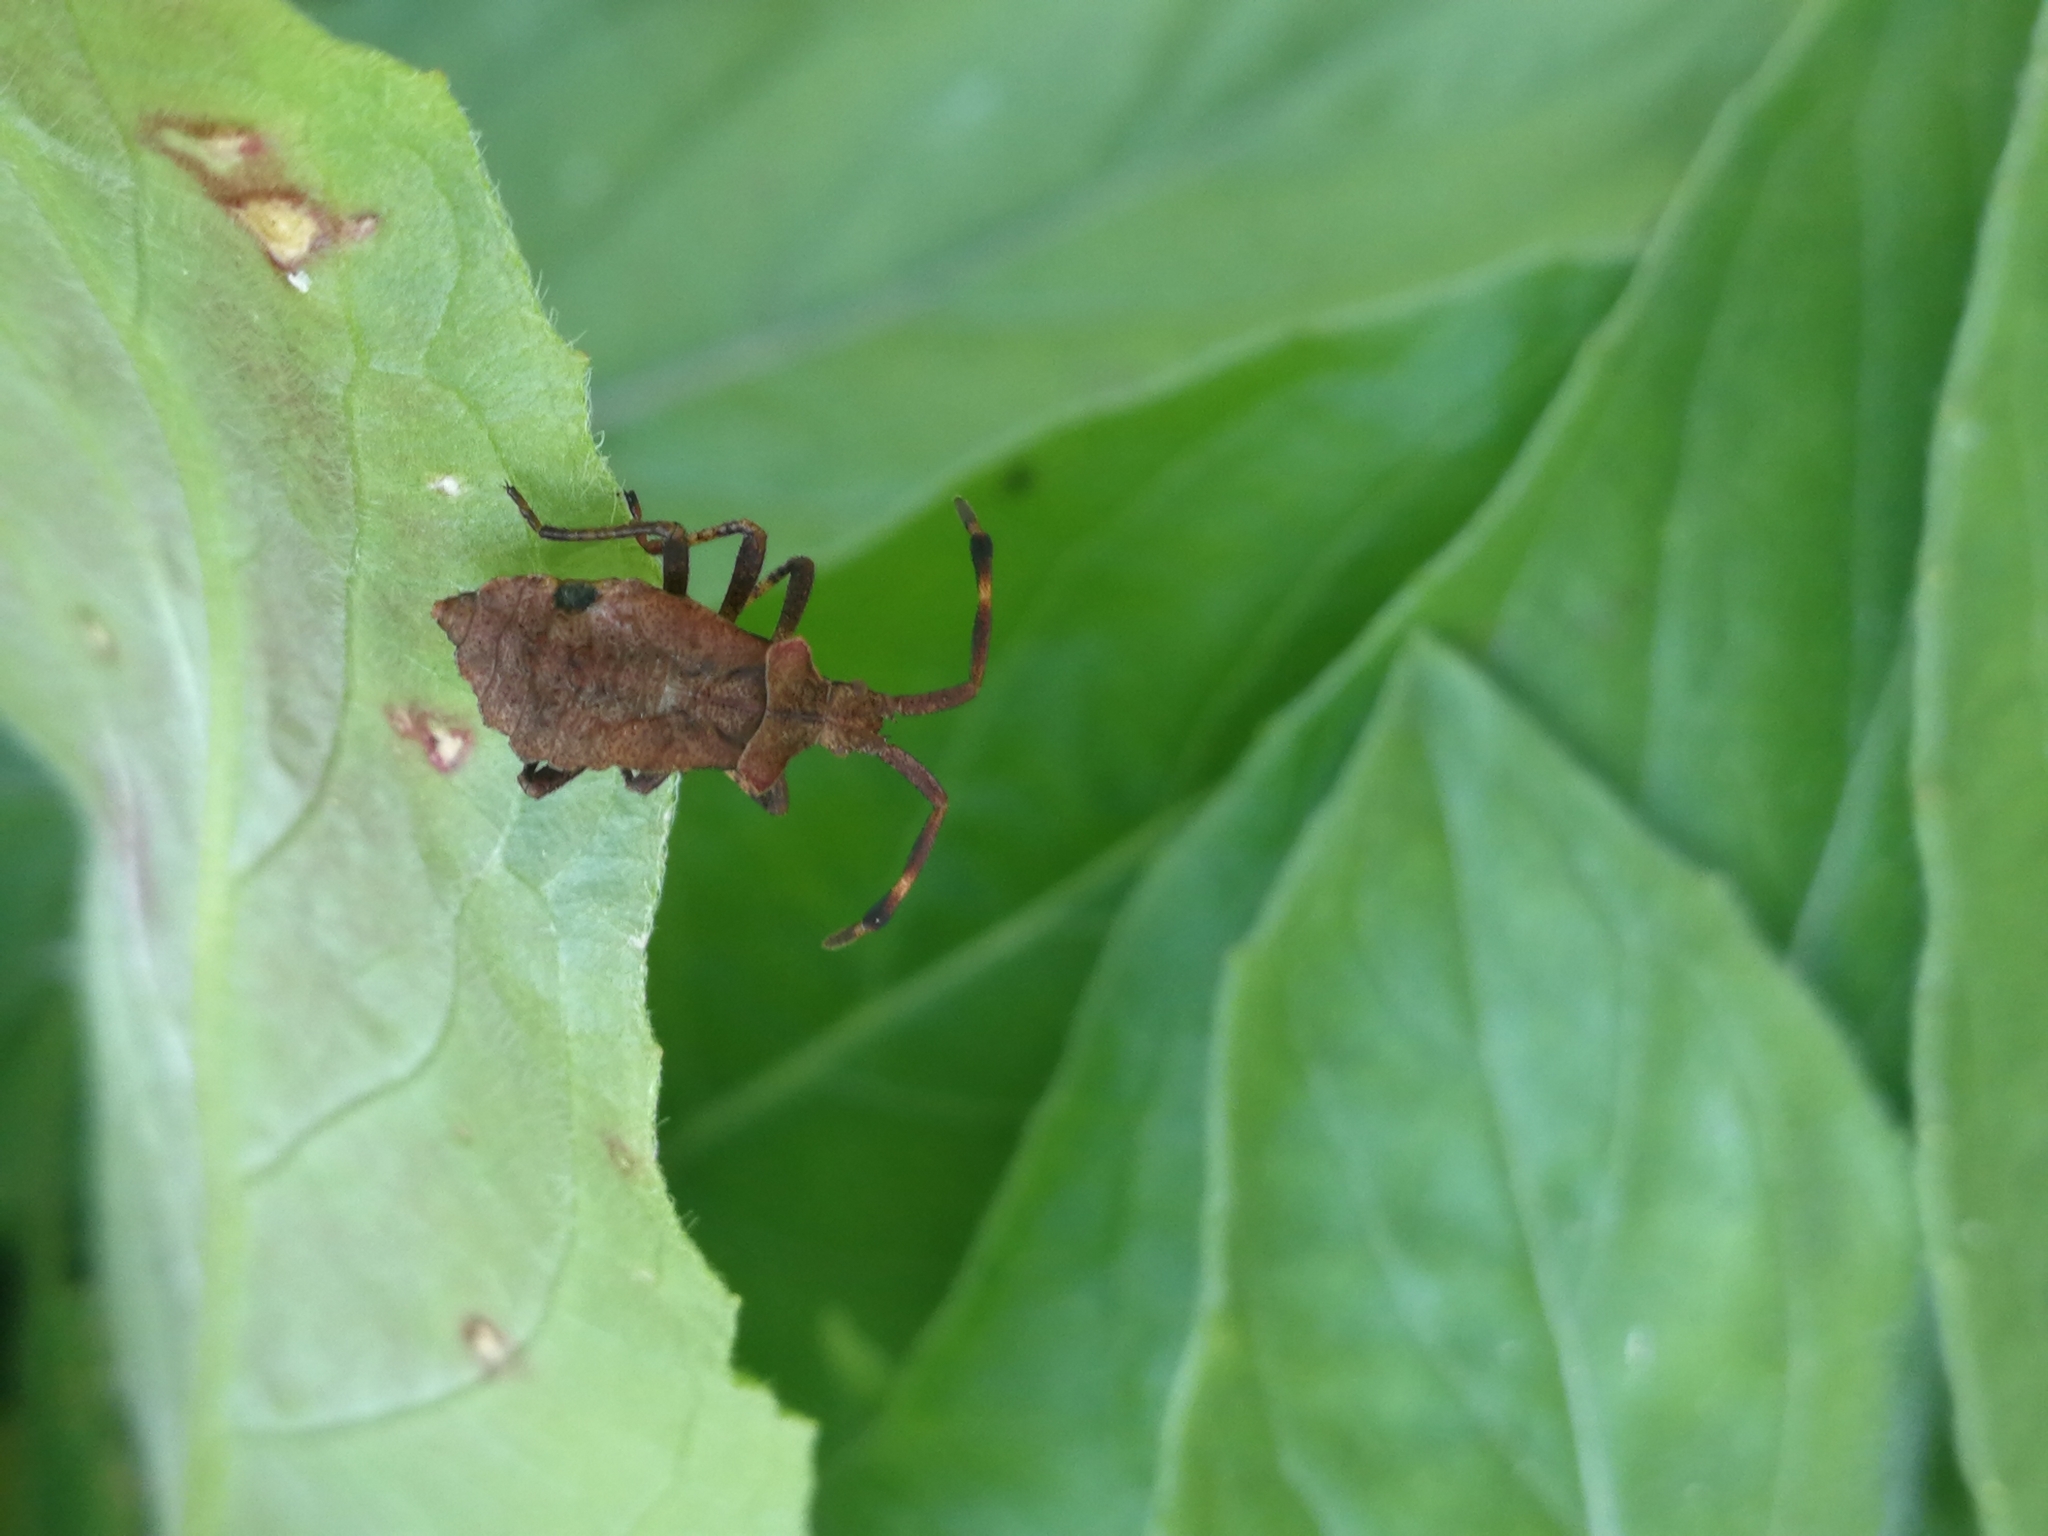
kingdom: Animalia
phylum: Arthropoda
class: Insecta
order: Hemiptera
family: Coreidae
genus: Coreus
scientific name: Coreus marginatus
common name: Dock bug
